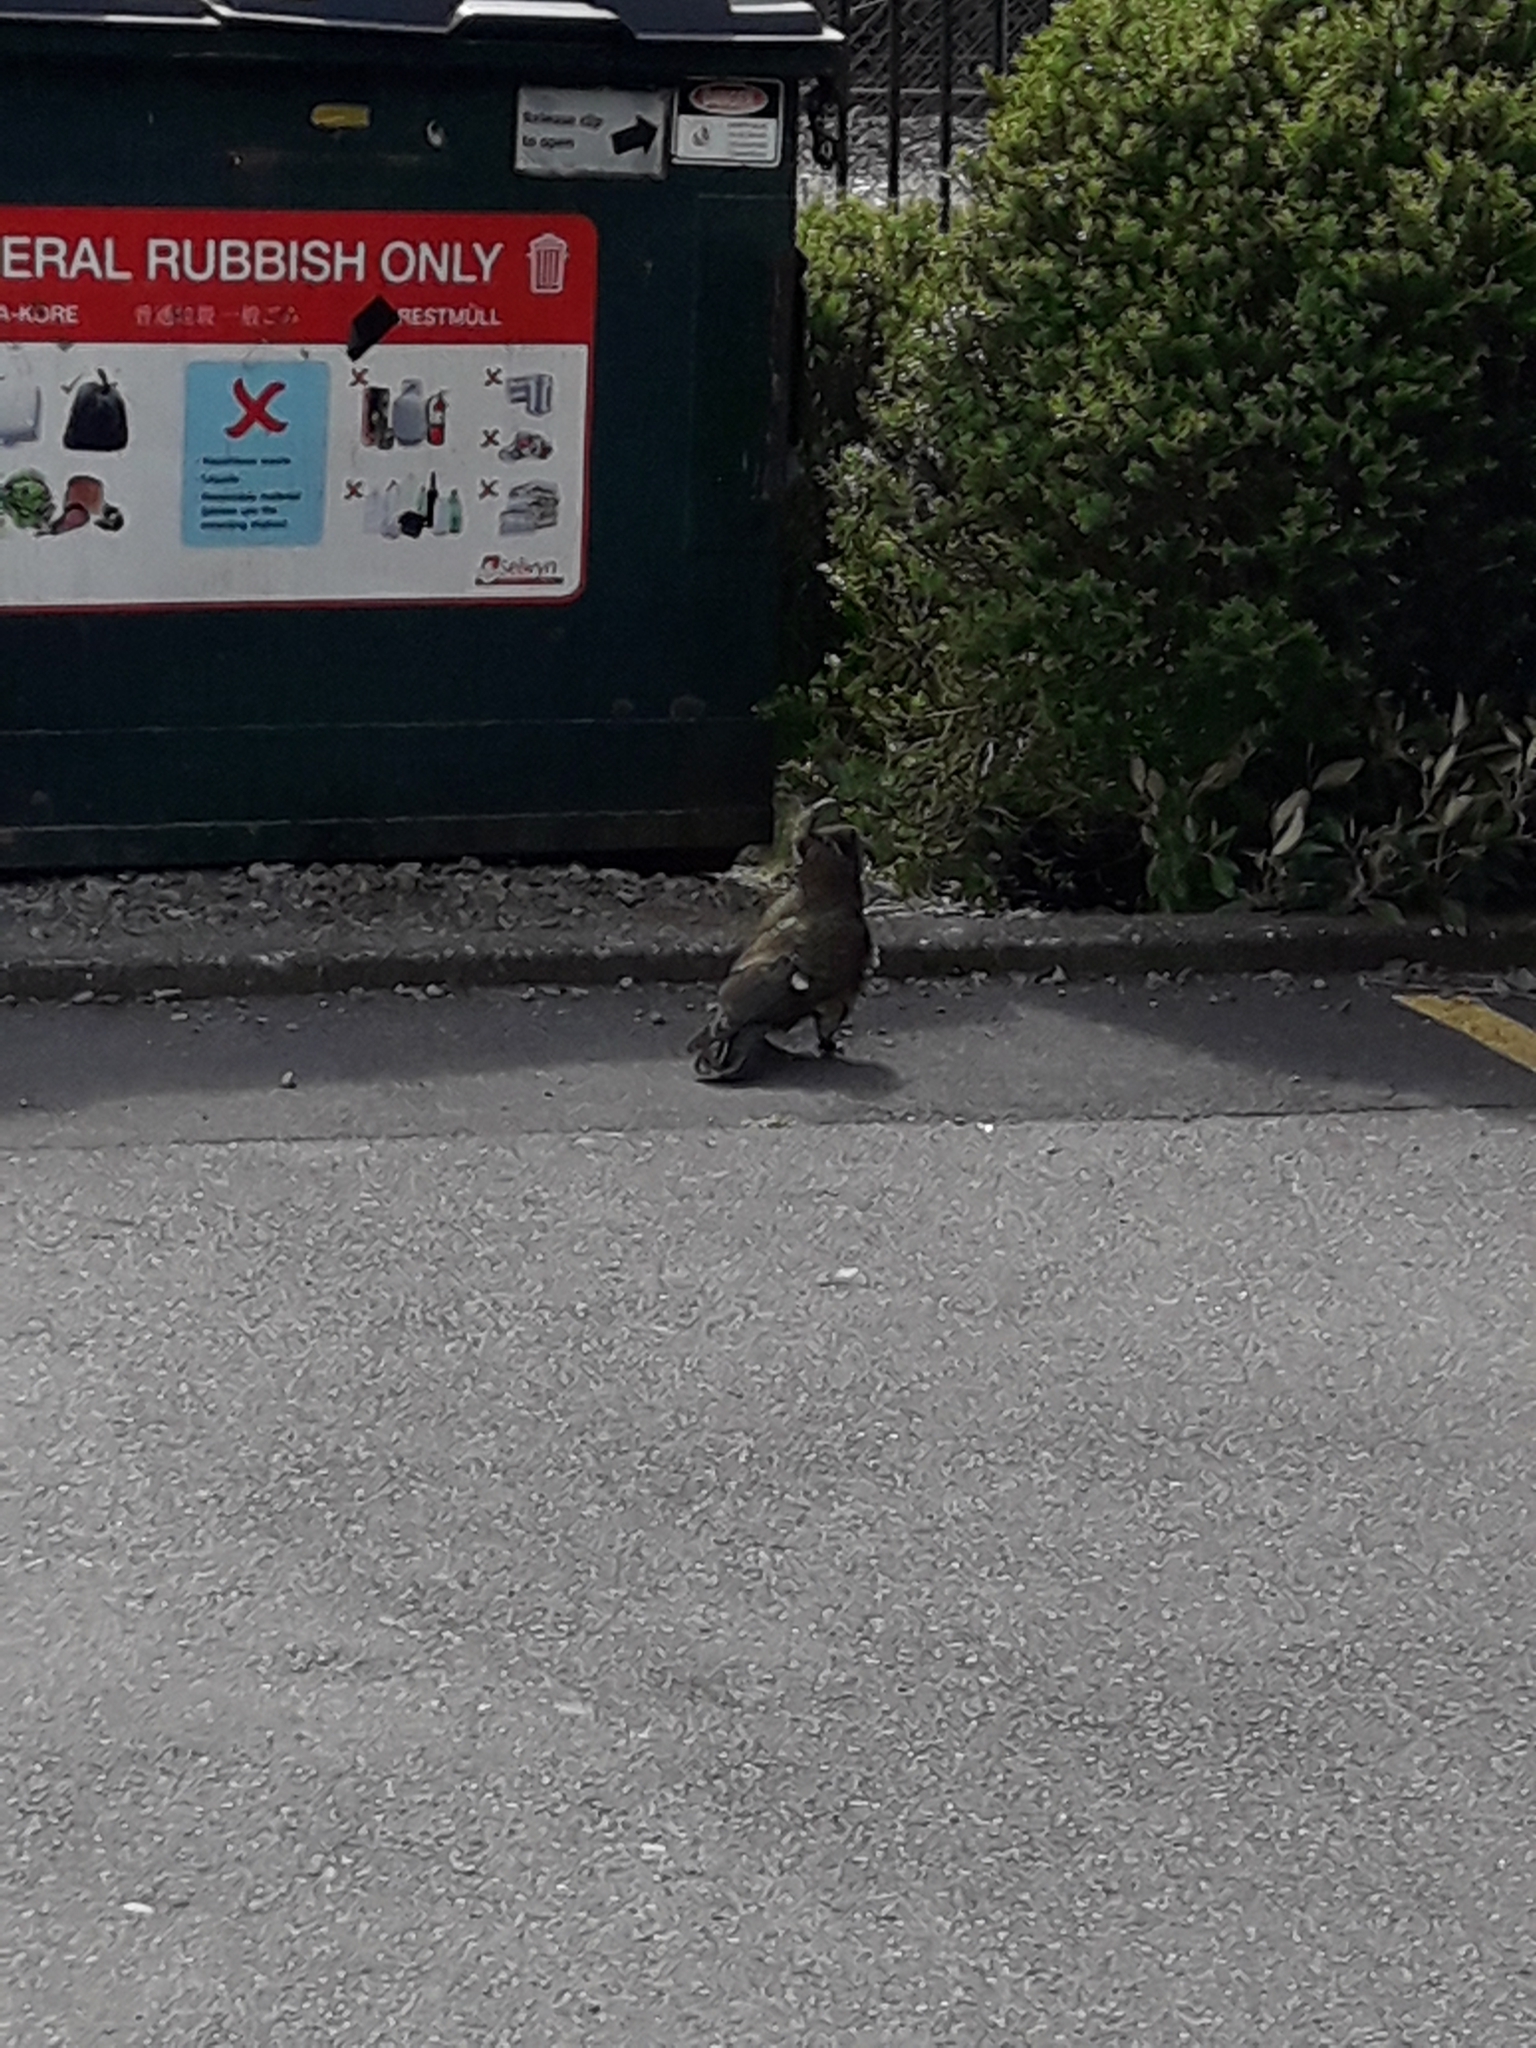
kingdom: Animalia
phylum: Chordata
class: Aves
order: Psittaciformes
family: Psittacidae
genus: Nestor
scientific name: Nestor notabilis
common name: Kea
